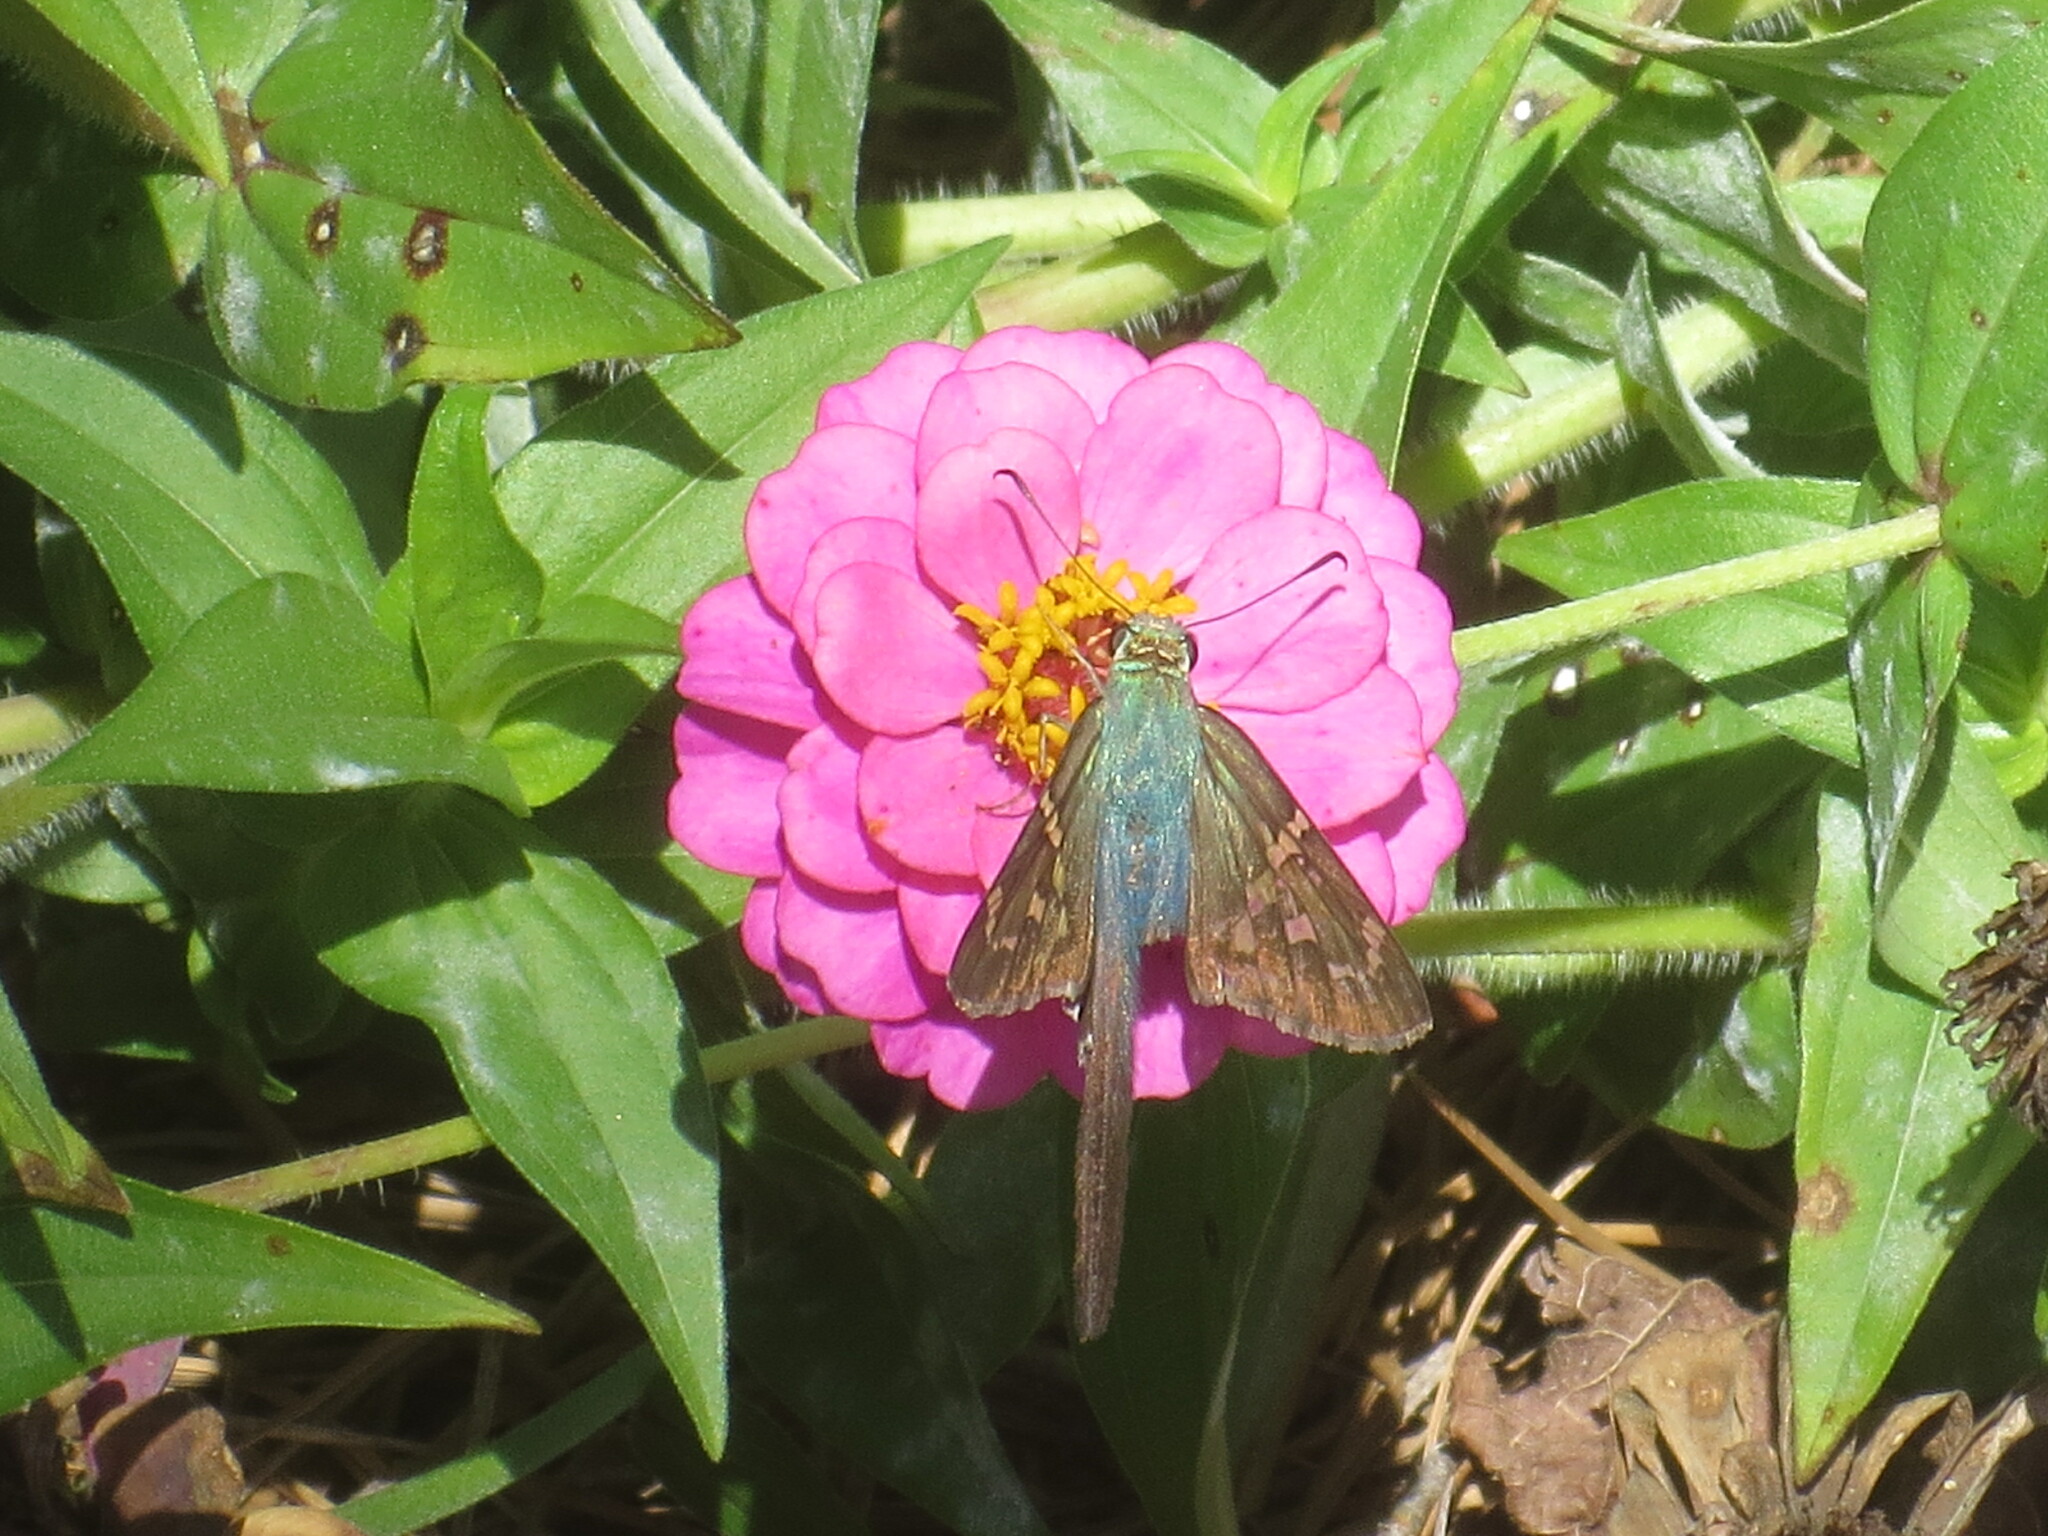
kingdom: Animalia
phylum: Arthropoda
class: Insecta
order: Lepidoptera
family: Hesperiidae
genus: Urbanus
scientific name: Urbanus proteus
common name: Long-tailed skipper
